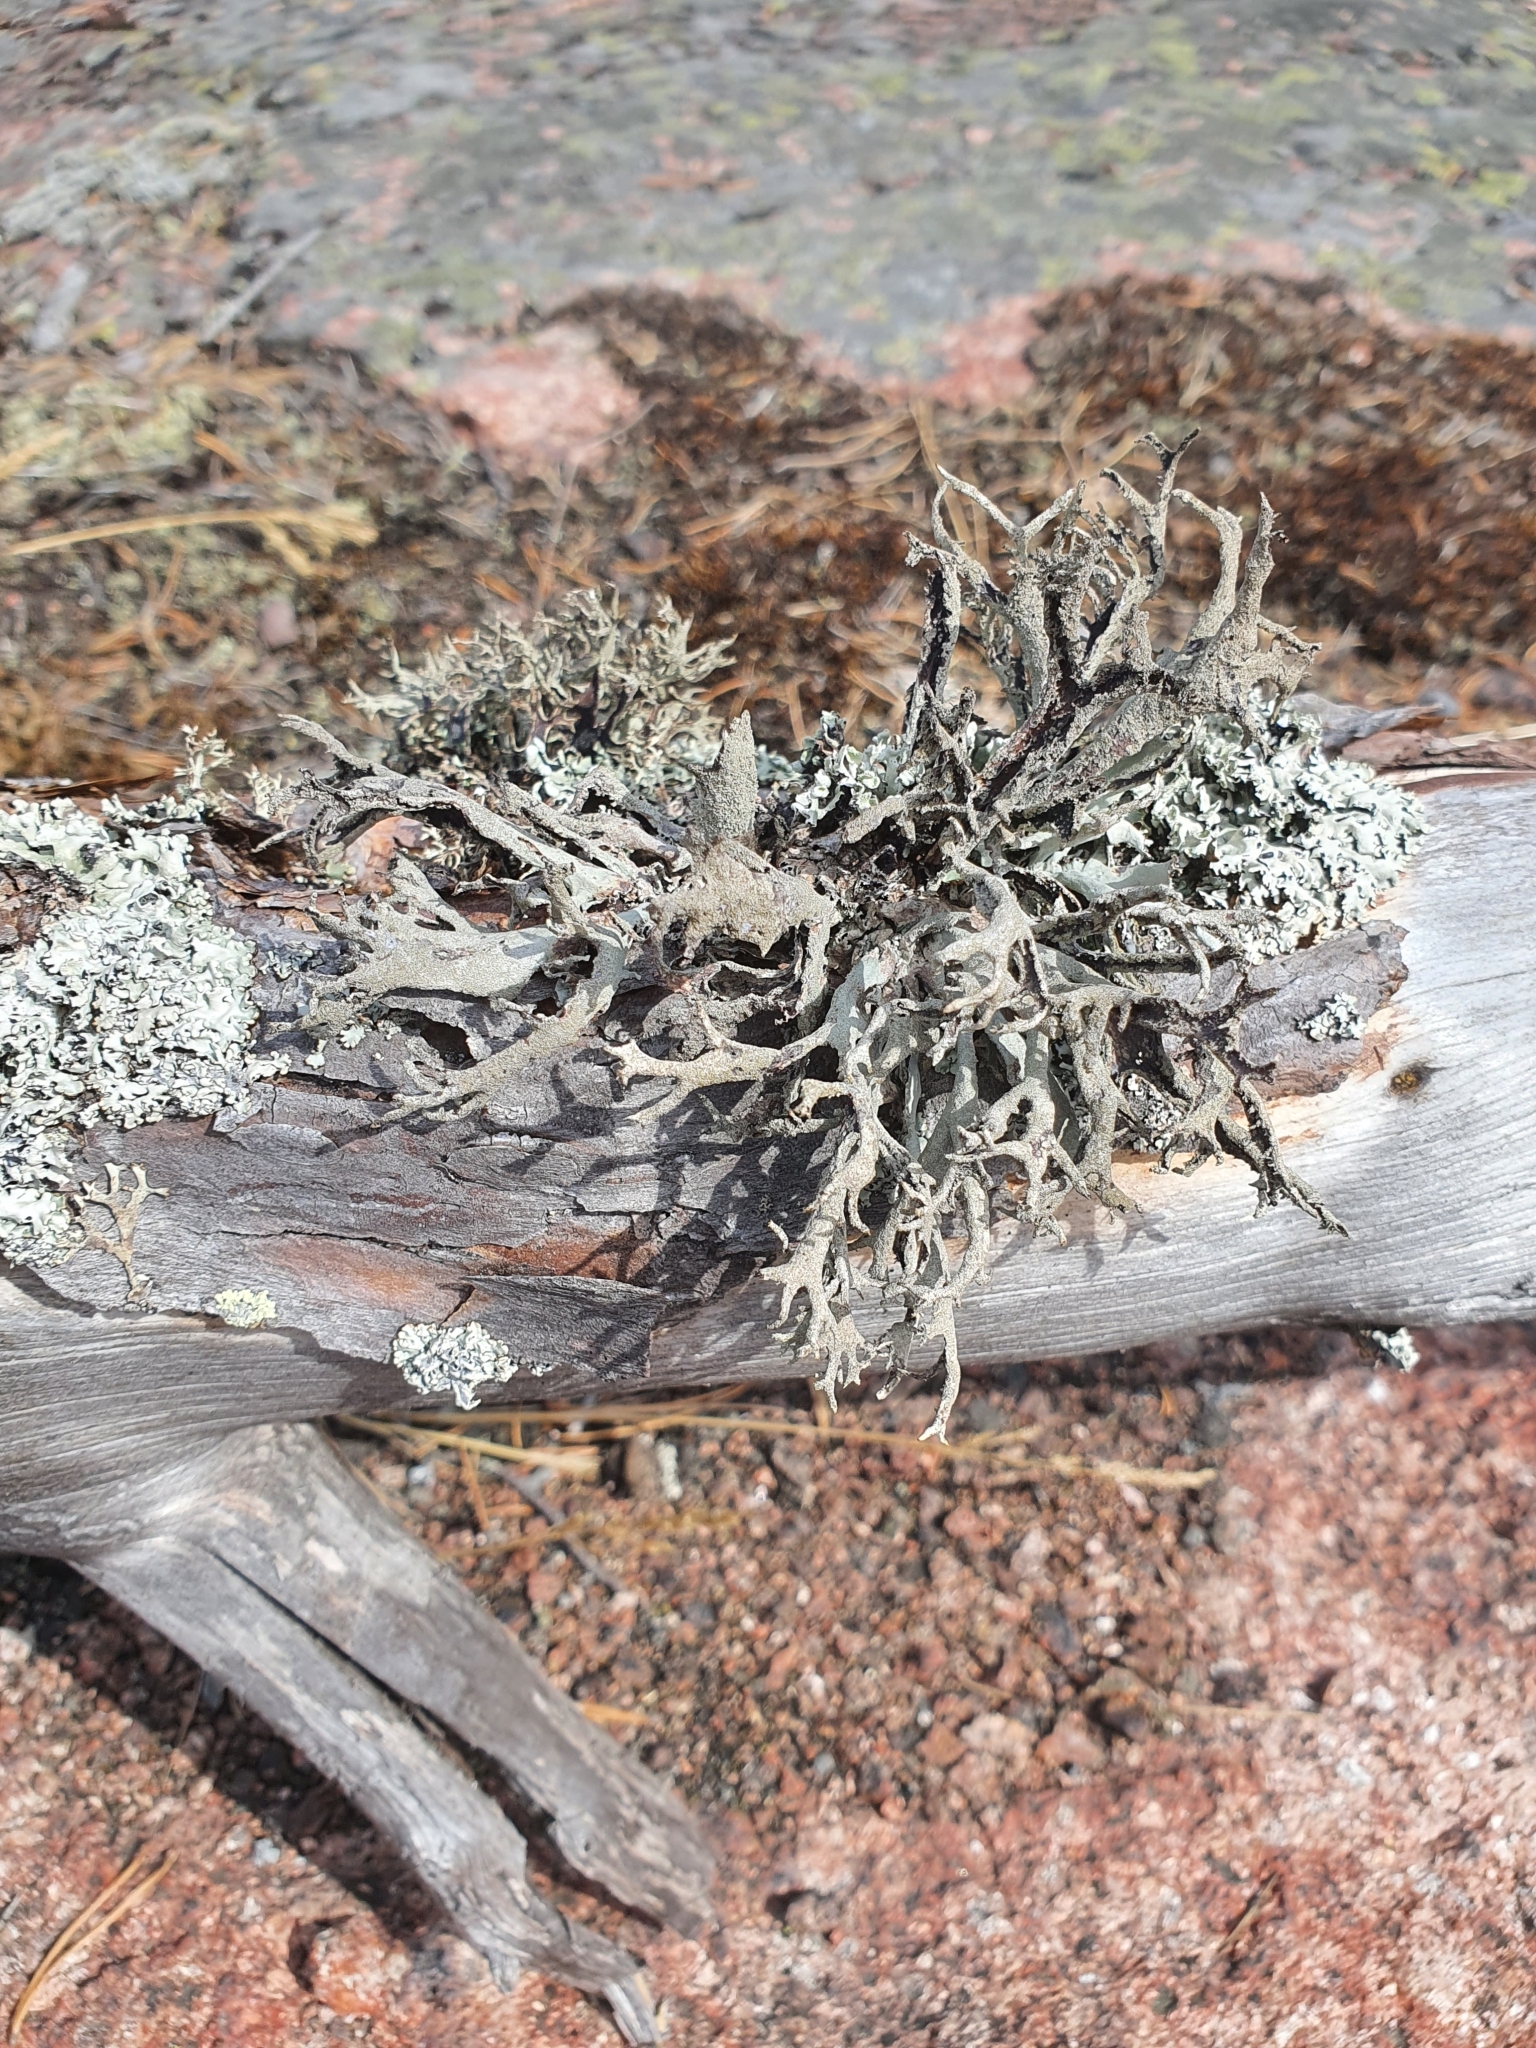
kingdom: Fungi
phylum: Ascomycota
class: Lecanoromycetes
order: Lecanorales
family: Parmeliaceae
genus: Pseudevernia
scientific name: Pseudevernia furfuracea
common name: Tree moss
